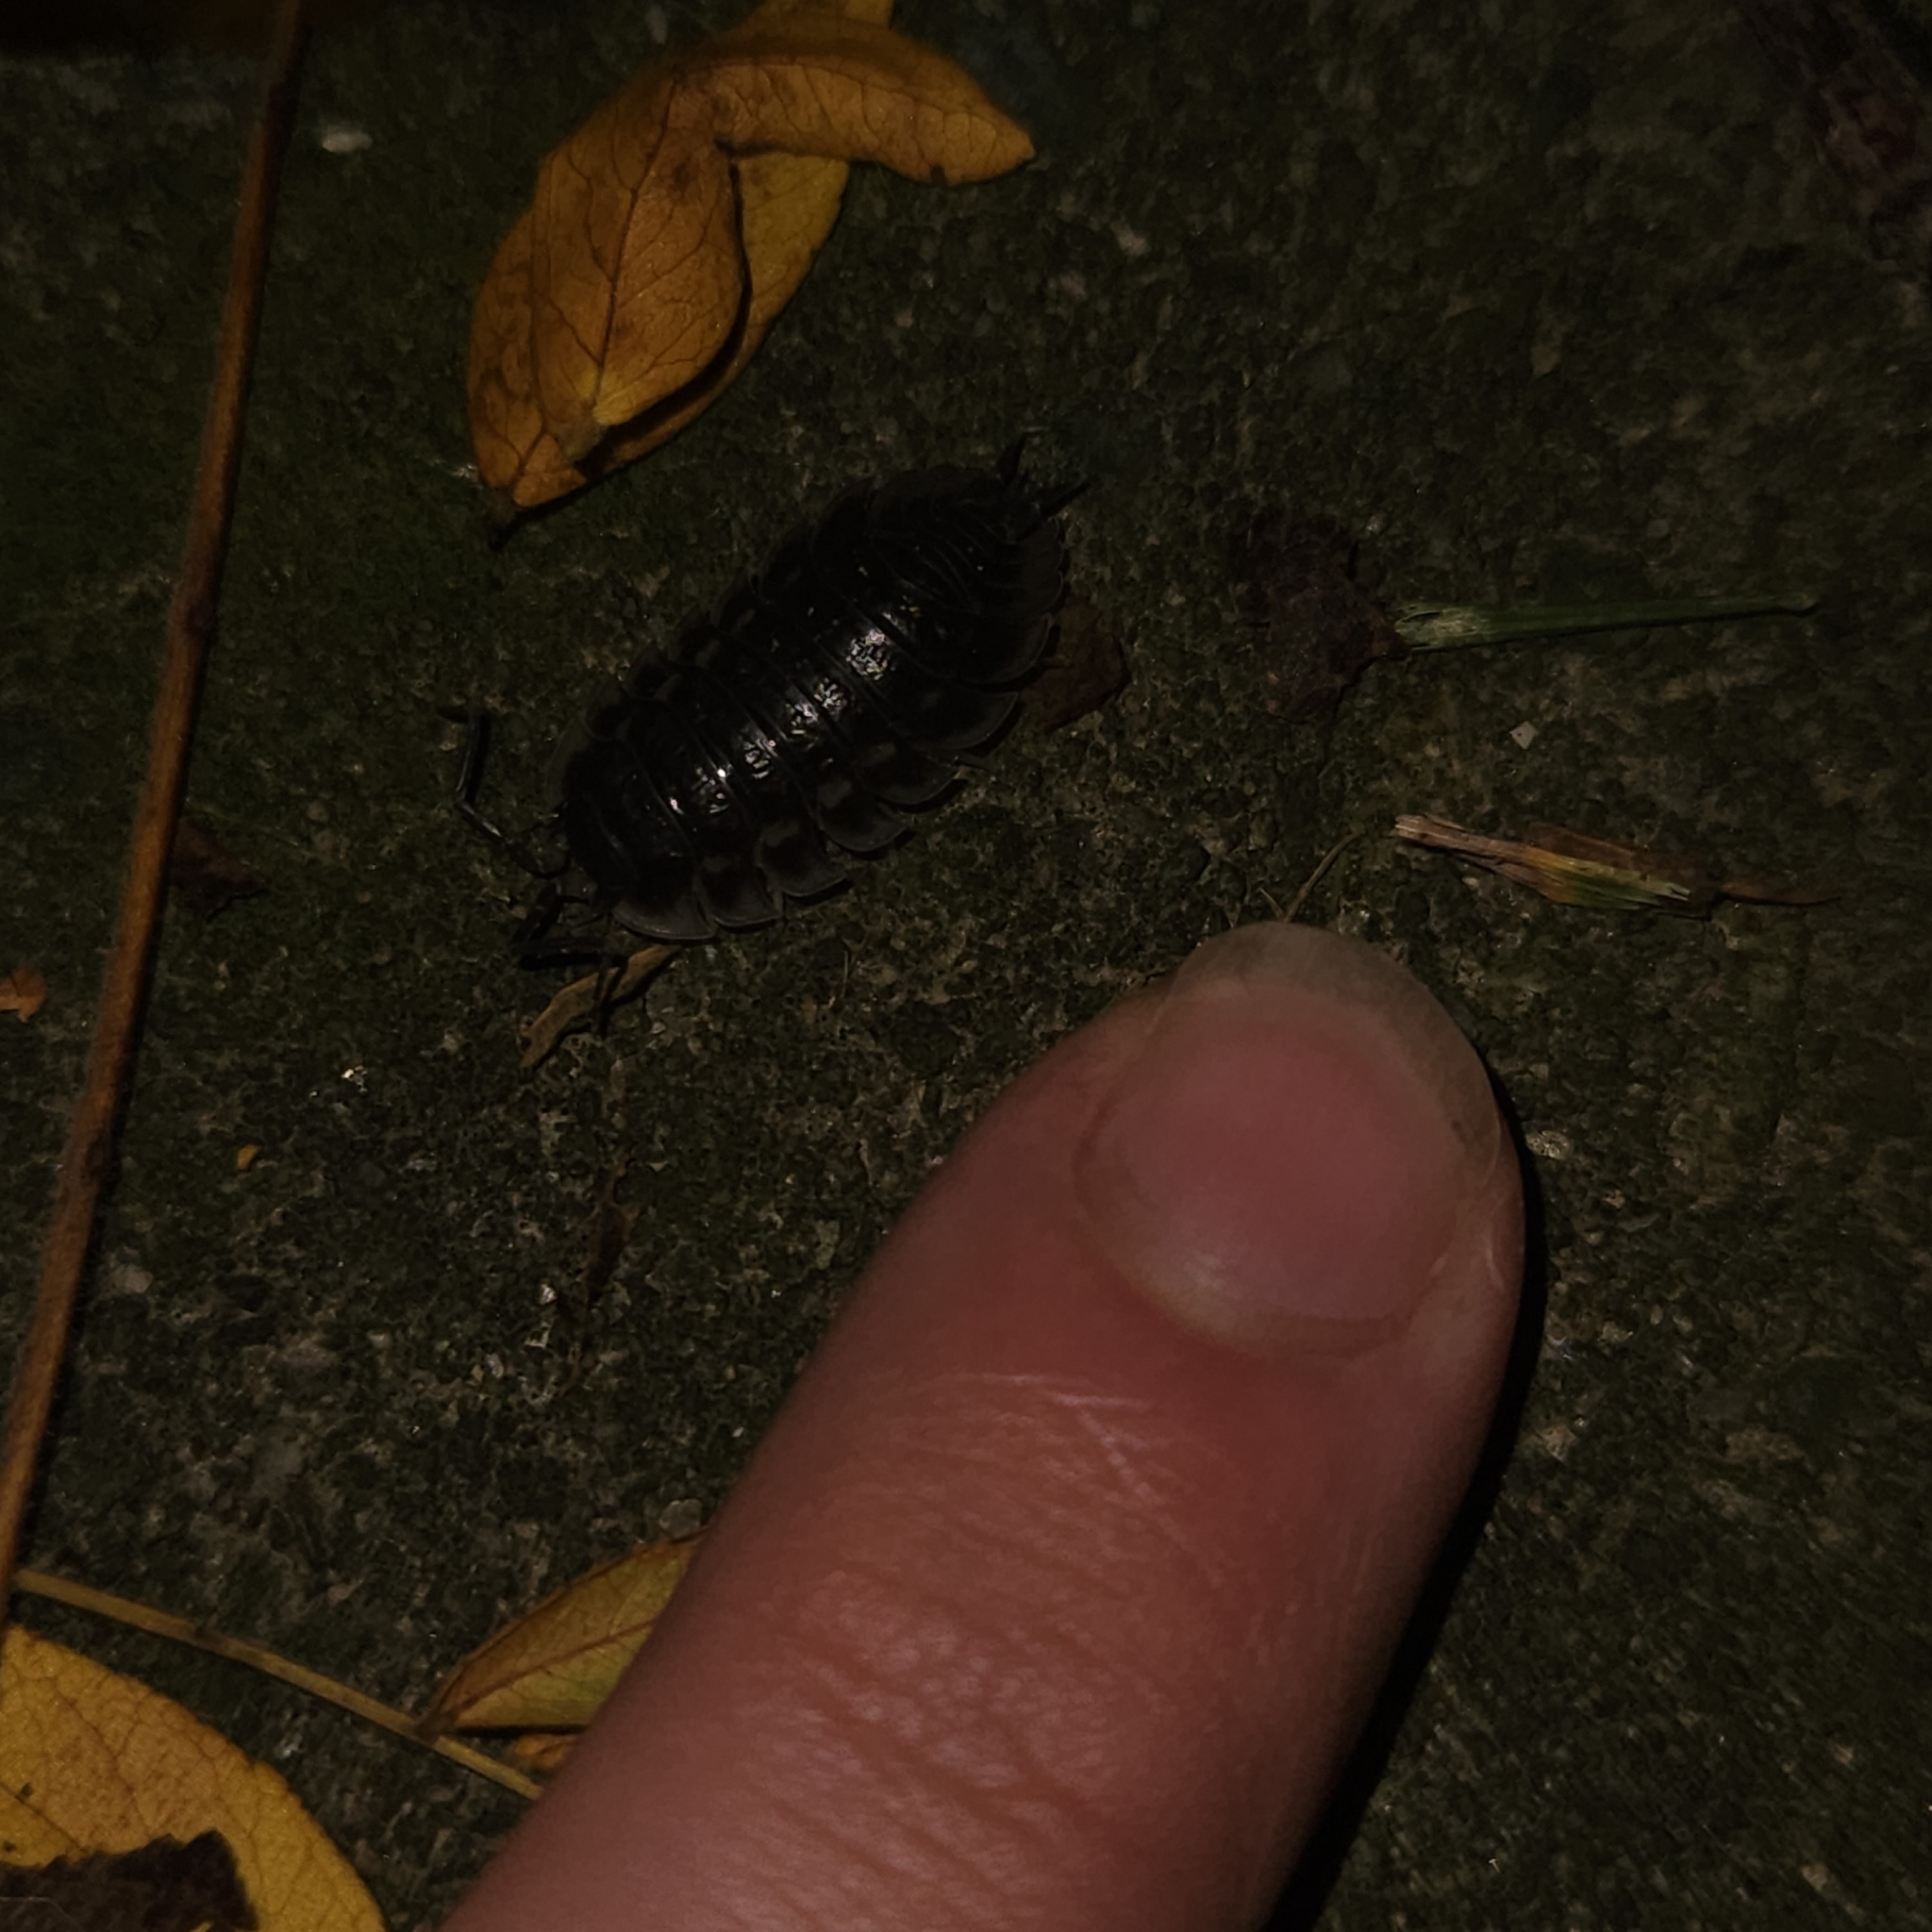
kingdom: Animalia
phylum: Arthropoda
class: Malacostraca
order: Isopoda
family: Oniscidae
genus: Oniscus
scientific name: Oniscus asellus
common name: Common shiny woodlouse
